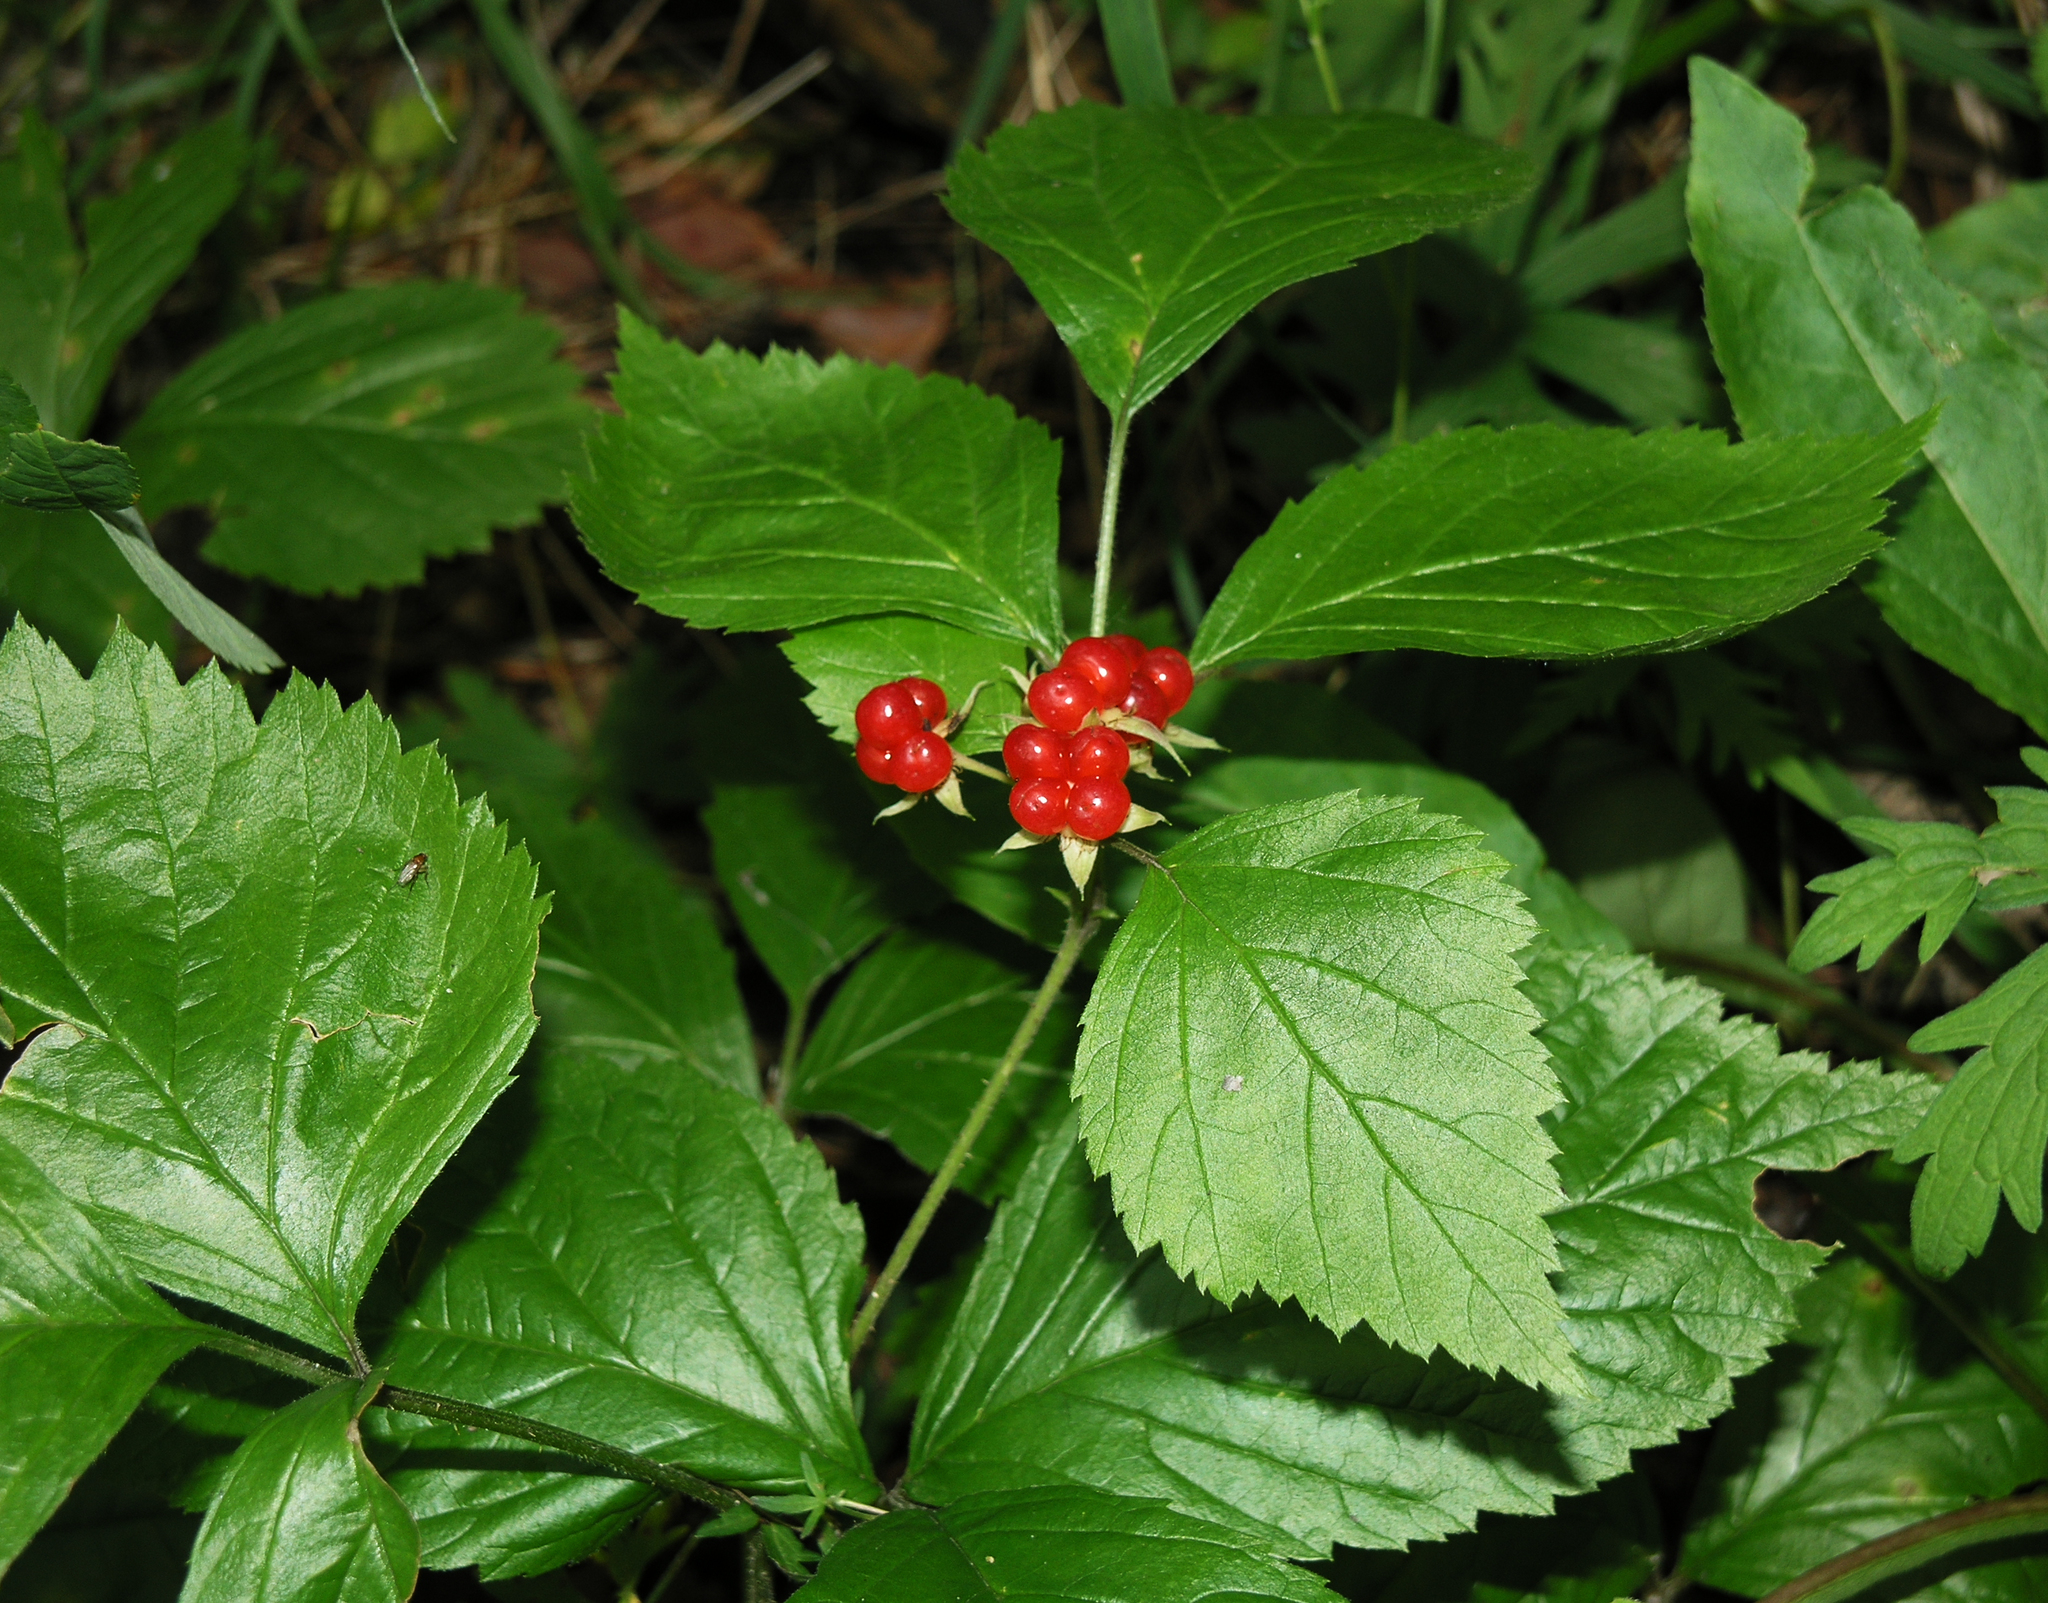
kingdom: Plantae
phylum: Tracheophyta
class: Magnoliopsida
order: Rosales
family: Rosaceae
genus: Rubus
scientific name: Rubus saxatilis
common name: Stone bramble
